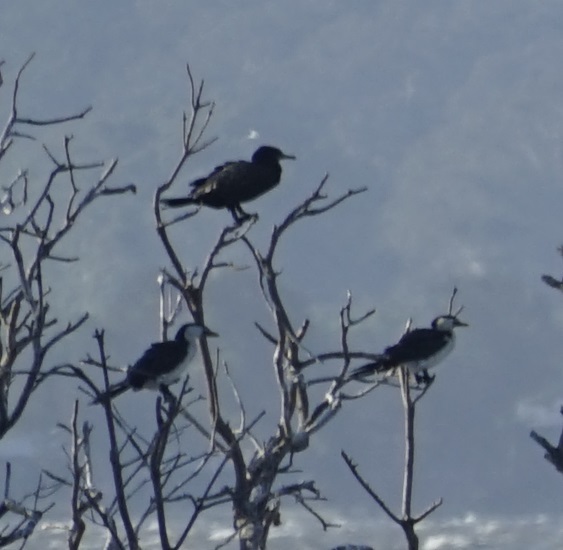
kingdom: Animalia
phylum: Chordata
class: Aves
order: Suliformes
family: Phalacrocoracidae
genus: Microcarbo
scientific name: Microcarbo melanoleucos
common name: Little pied cormorant
